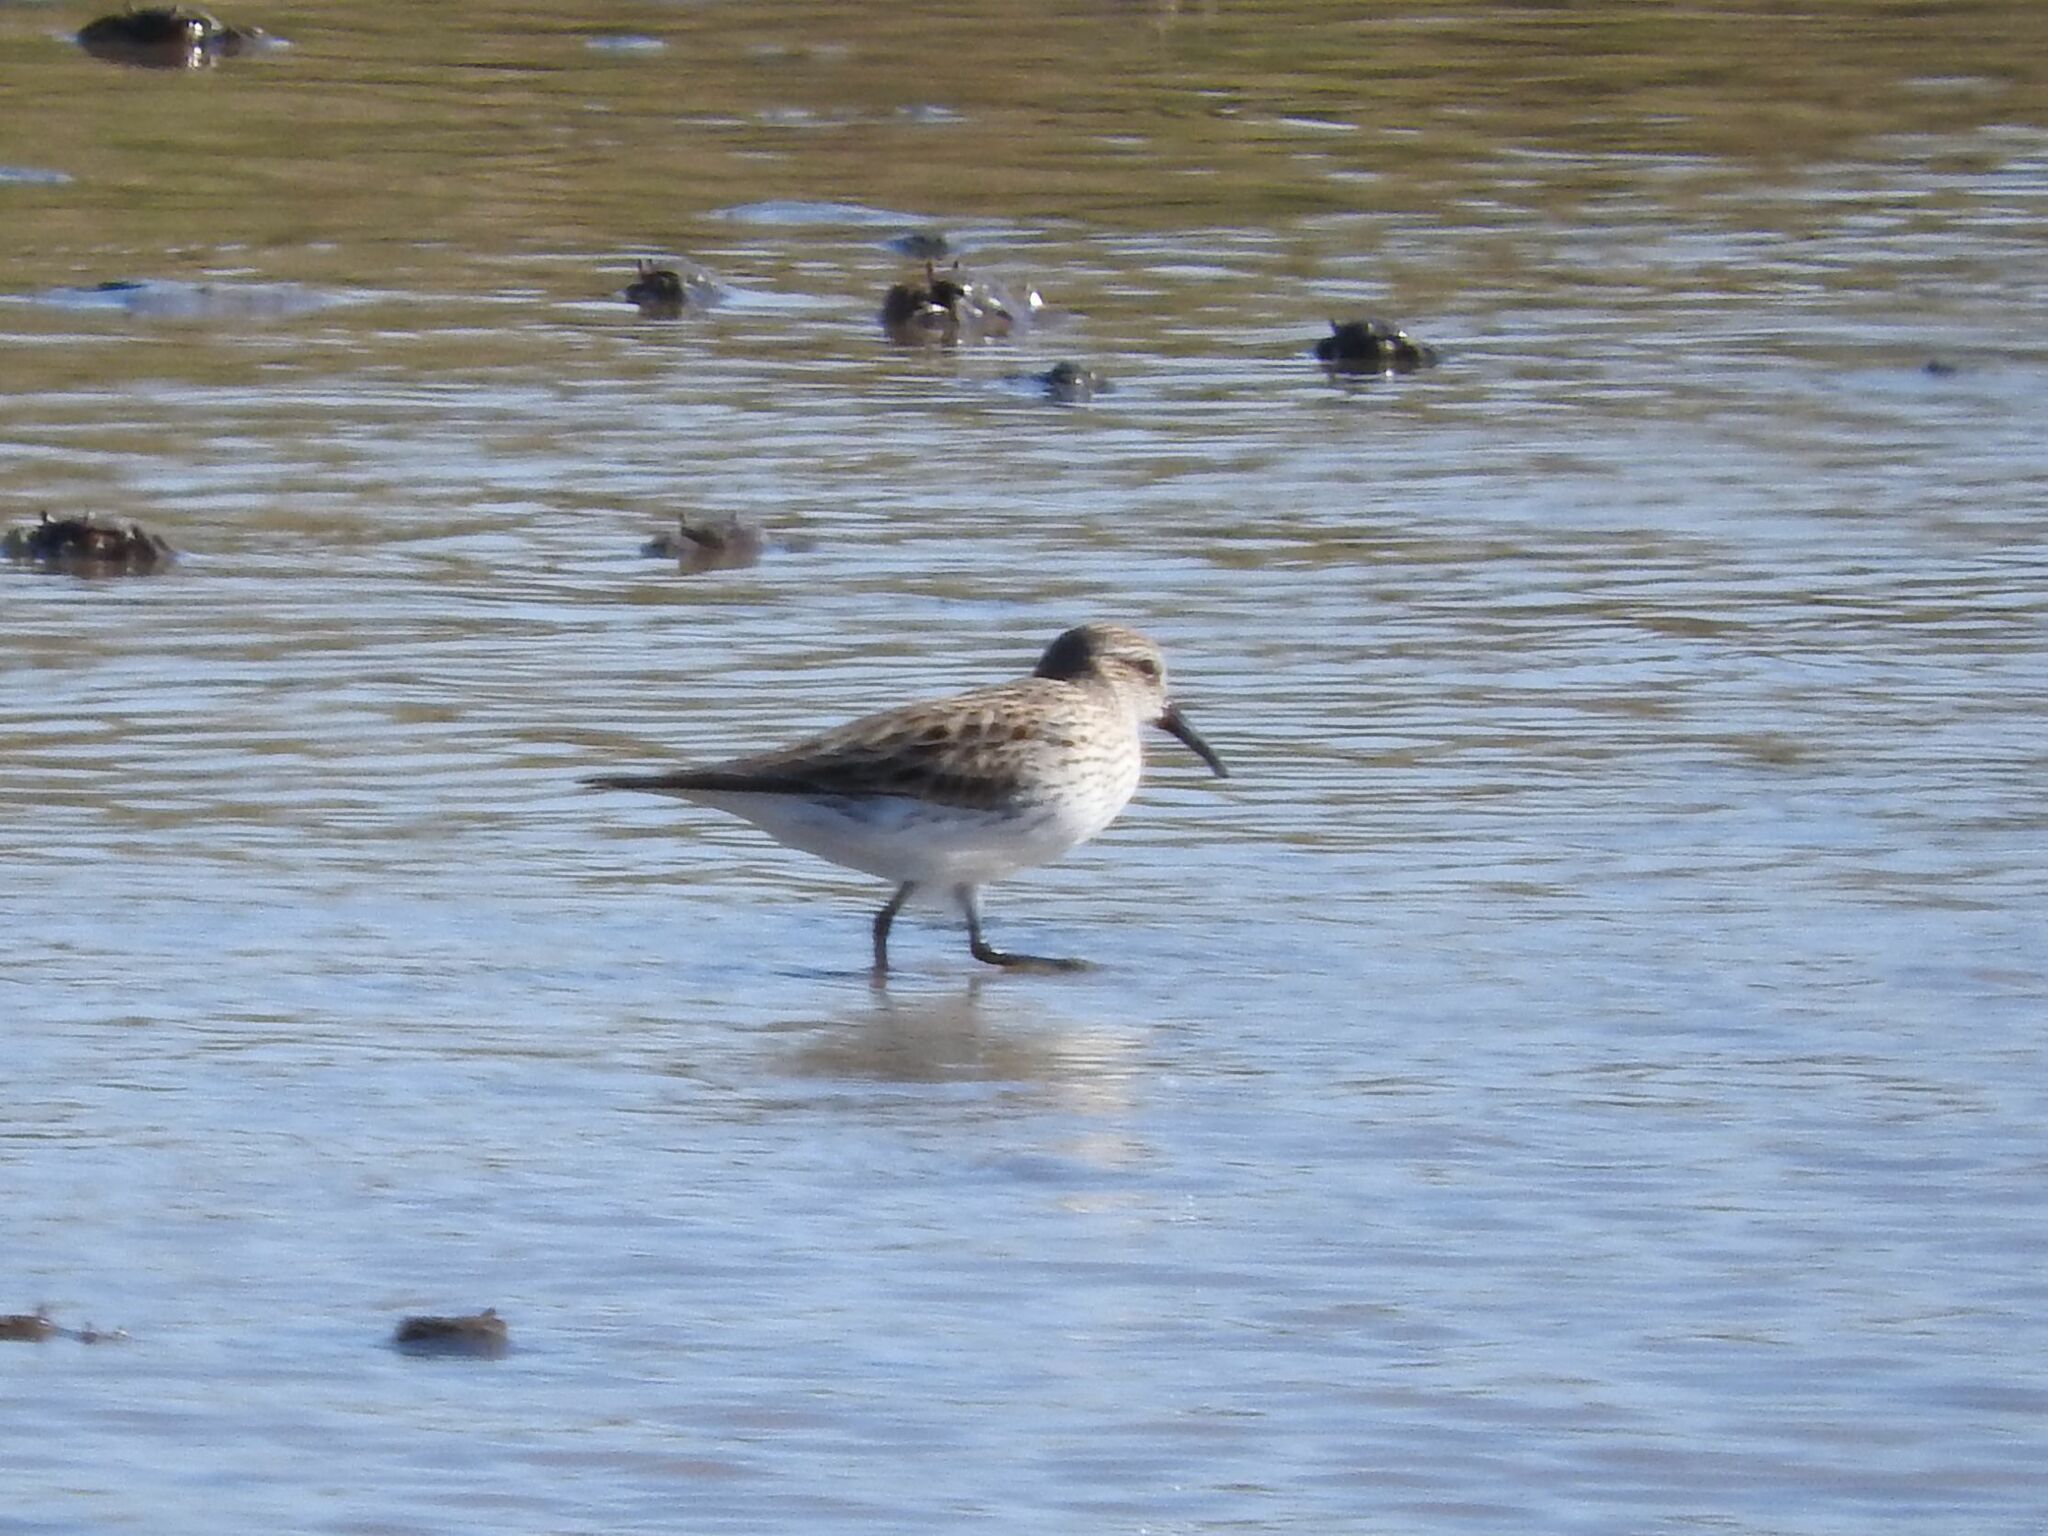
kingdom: Animalia
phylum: Chordata
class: Aves
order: Charadriiformes
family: Scolopacidae
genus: Calidris
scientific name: Calidris fuscicollis
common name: White-rumped sandpiper
